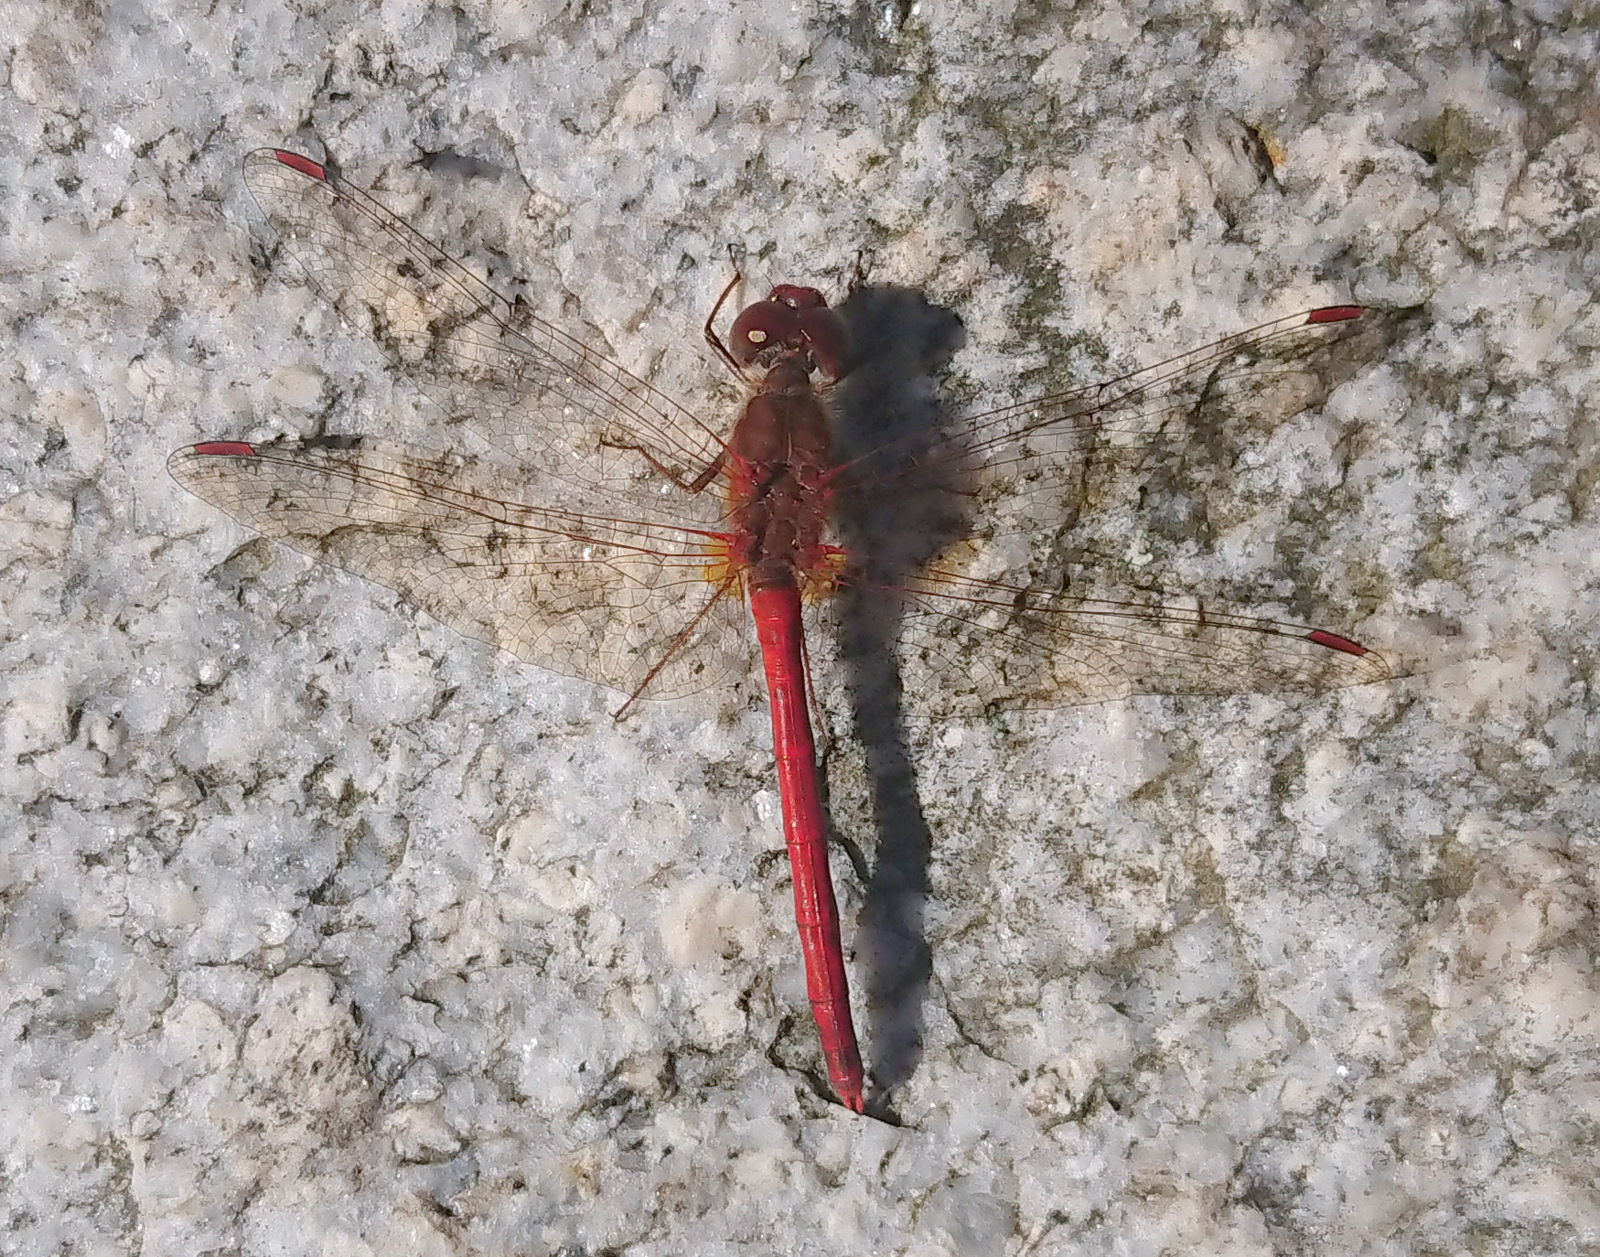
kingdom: Animalia
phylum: Arthropoda
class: Insecta
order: Odonata
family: Libellulidae
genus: Sympetrum
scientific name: Sympetrum vicinum
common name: Autumn meadowhawk
